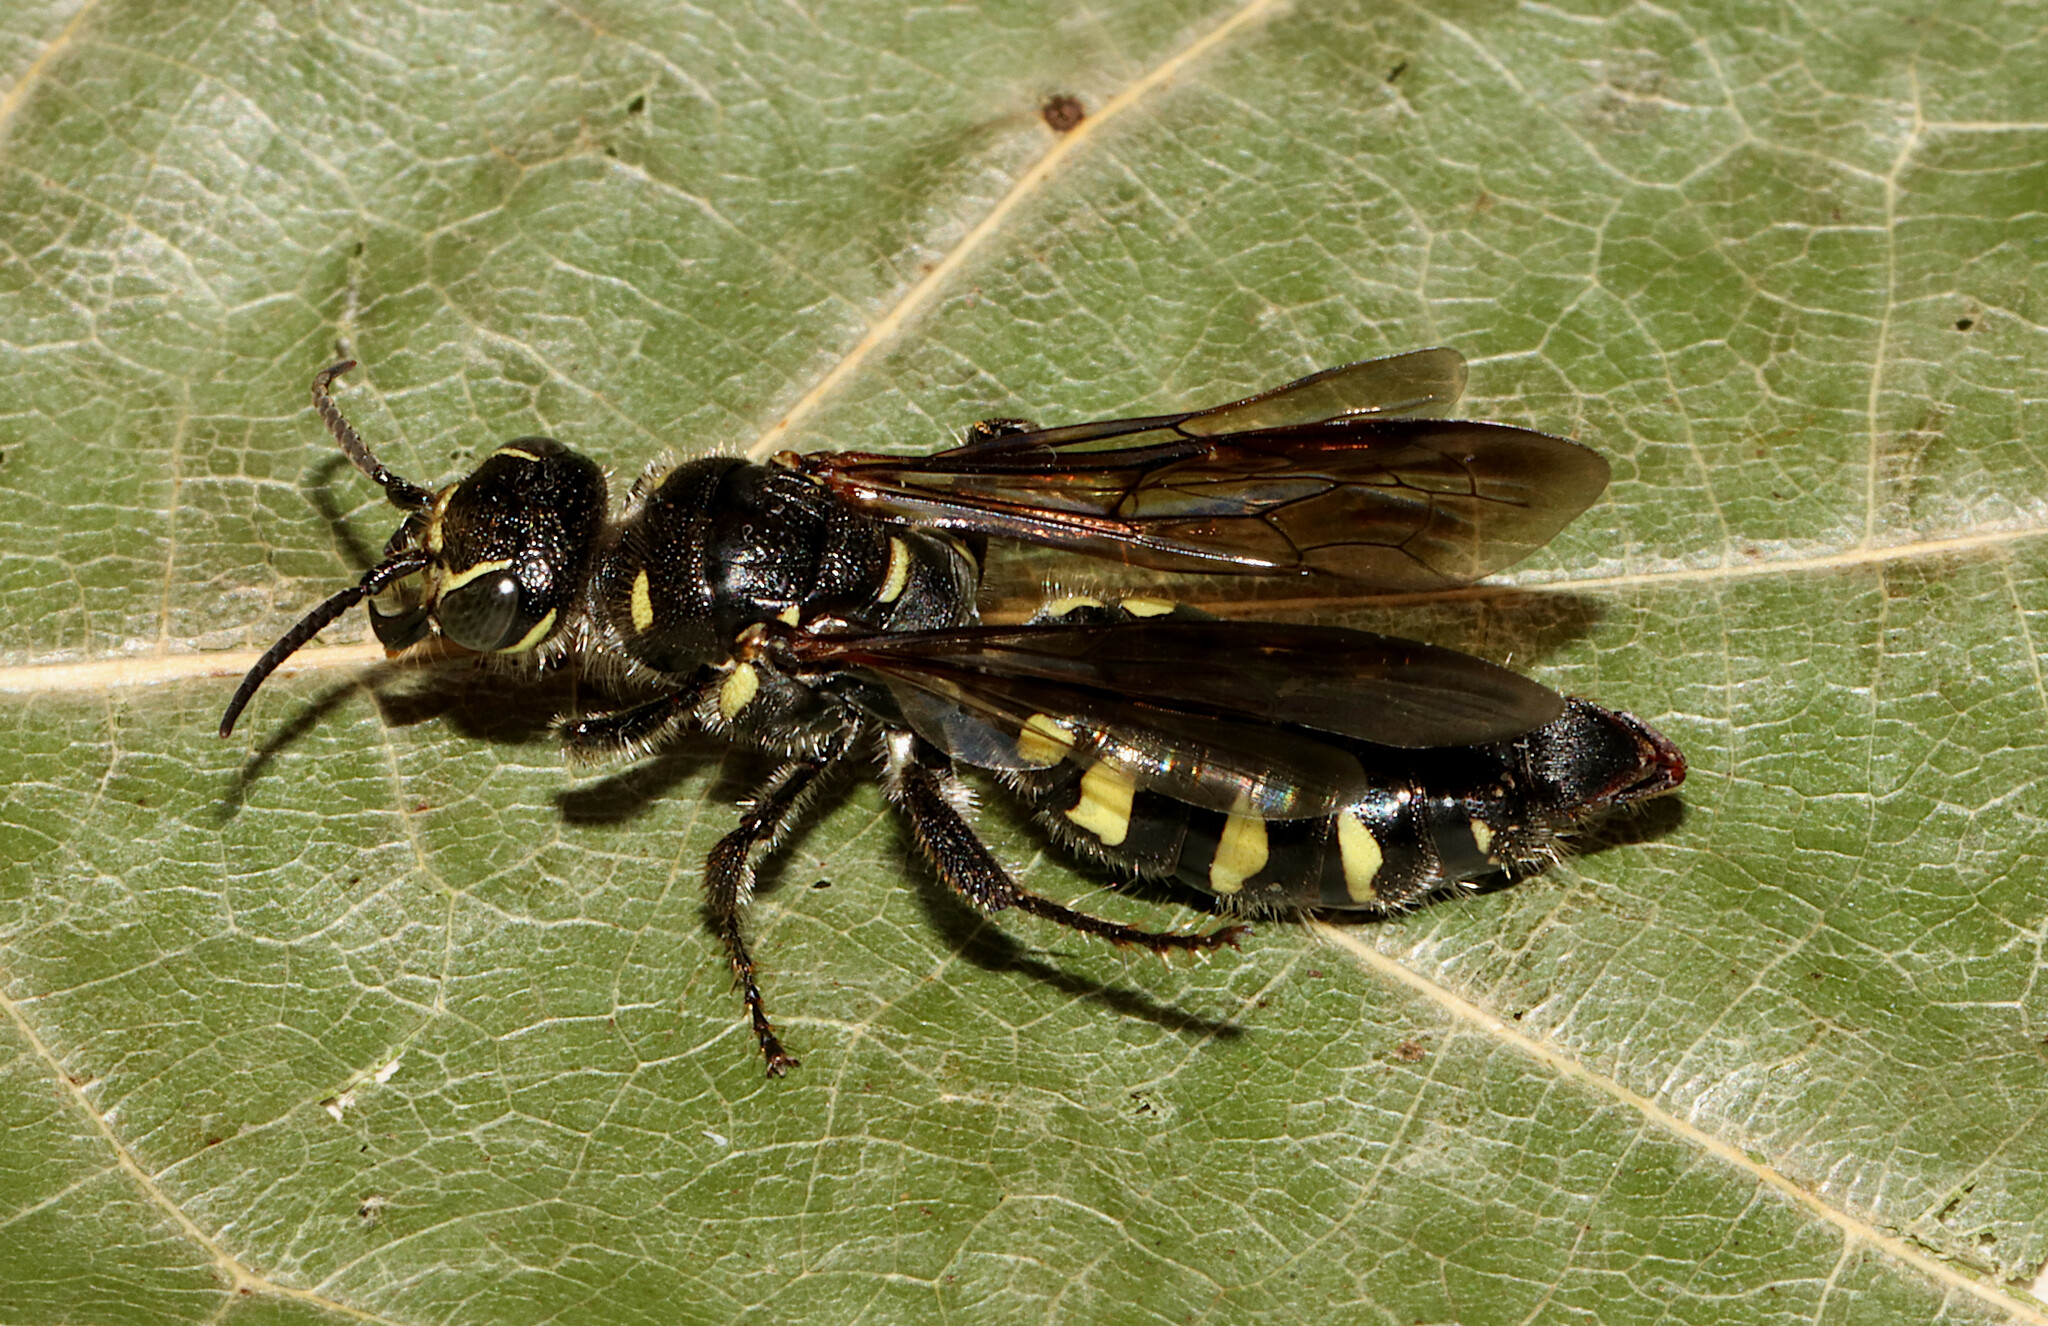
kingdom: Animalia
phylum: Arthropoda
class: Insecta
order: Hymenoptera
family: Tiphiidae
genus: Myzinum
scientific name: Myzinum obscurum
